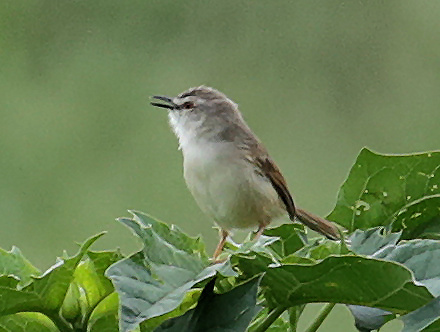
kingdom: Animalia
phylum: Chordata
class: Aves
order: Passeriformes
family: Cisticolidae
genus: Prinia
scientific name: Prinia subflava
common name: Tawny-flanked prinia
